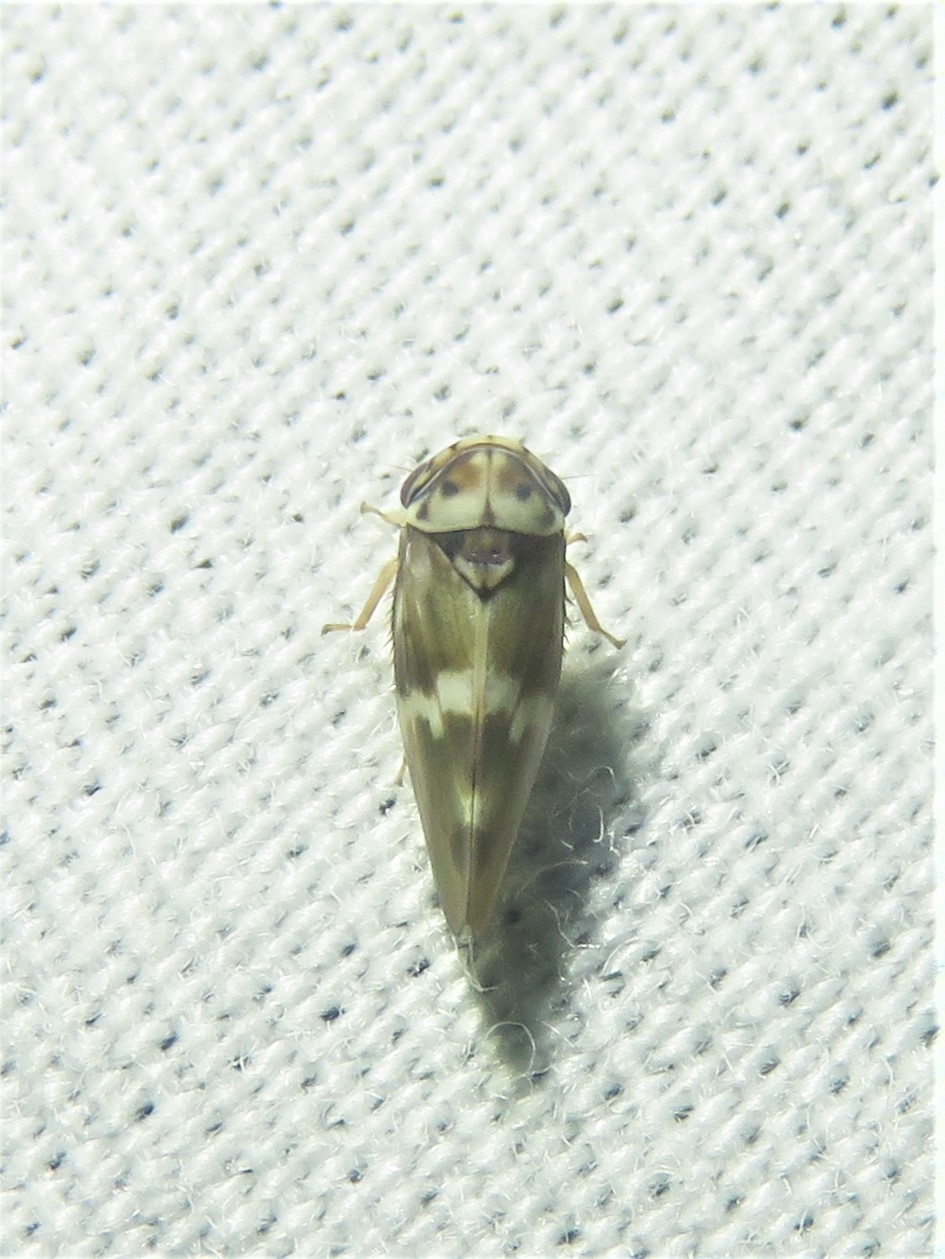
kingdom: Animalia
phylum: Arthropoda
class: Insecta
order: Hemiptera
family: Cicadellidae
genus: Agalliopsis
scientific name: Agalliopsis cervina
